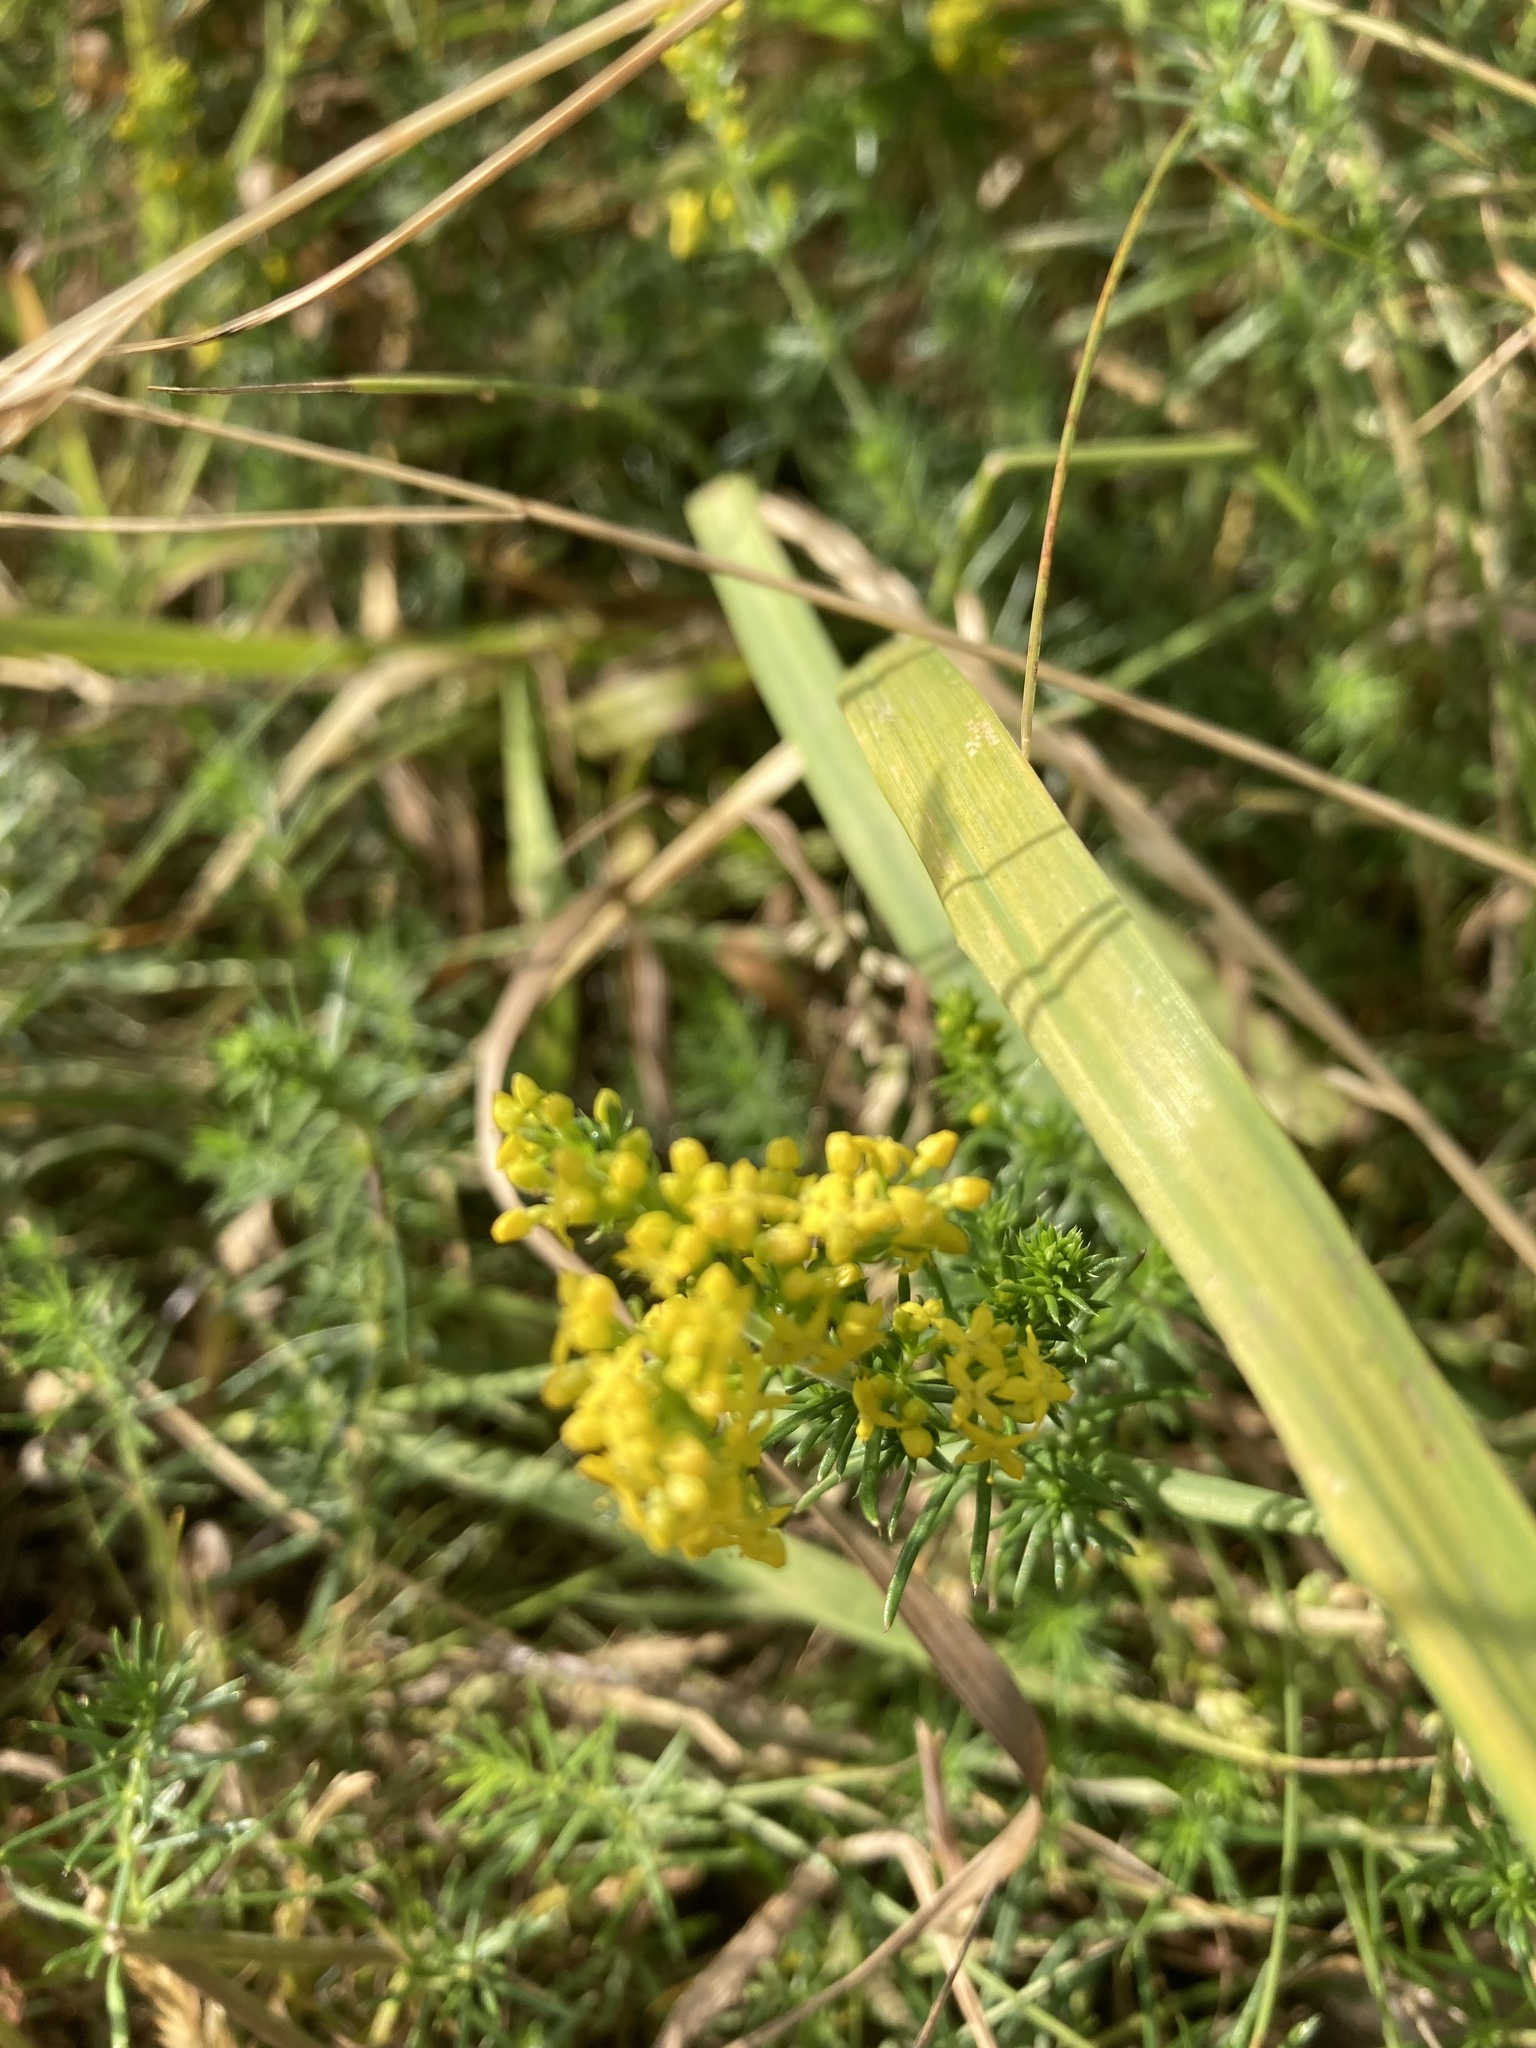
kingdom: Plantae
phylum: Tracheophyta
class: Magnoliopsida
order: Gentianales
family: Rubiaceae
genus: Galium
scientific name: Galium verum
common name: Lady's bedstraw
